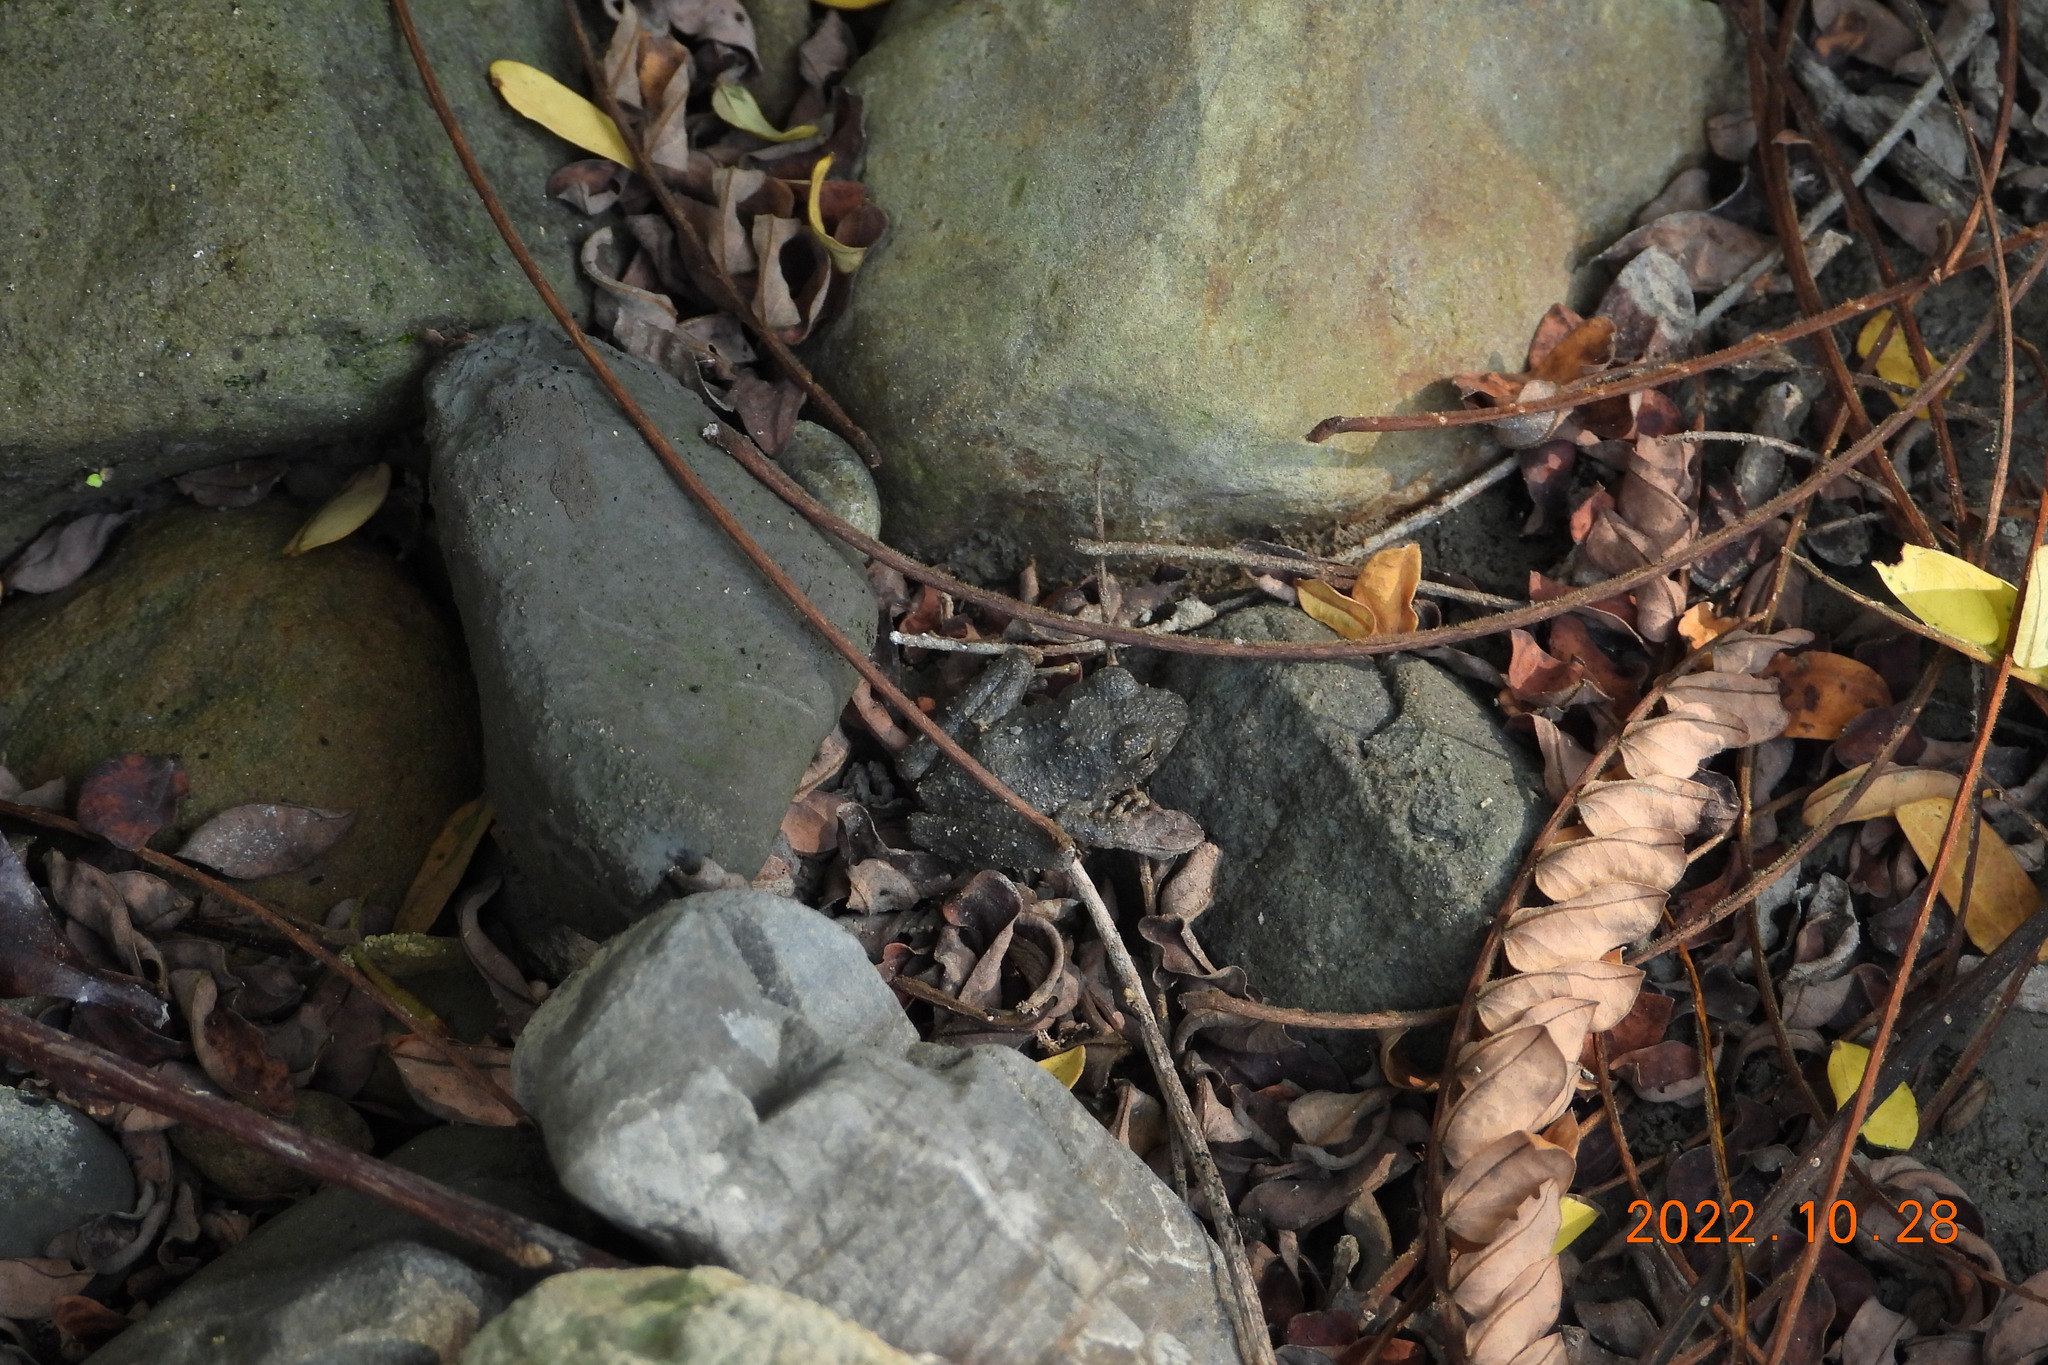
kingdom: Animalia
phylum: Chordata
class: Amphibia
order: Anura
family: Rhacophoridae
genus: Buergeria
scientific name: Buergeria otai
